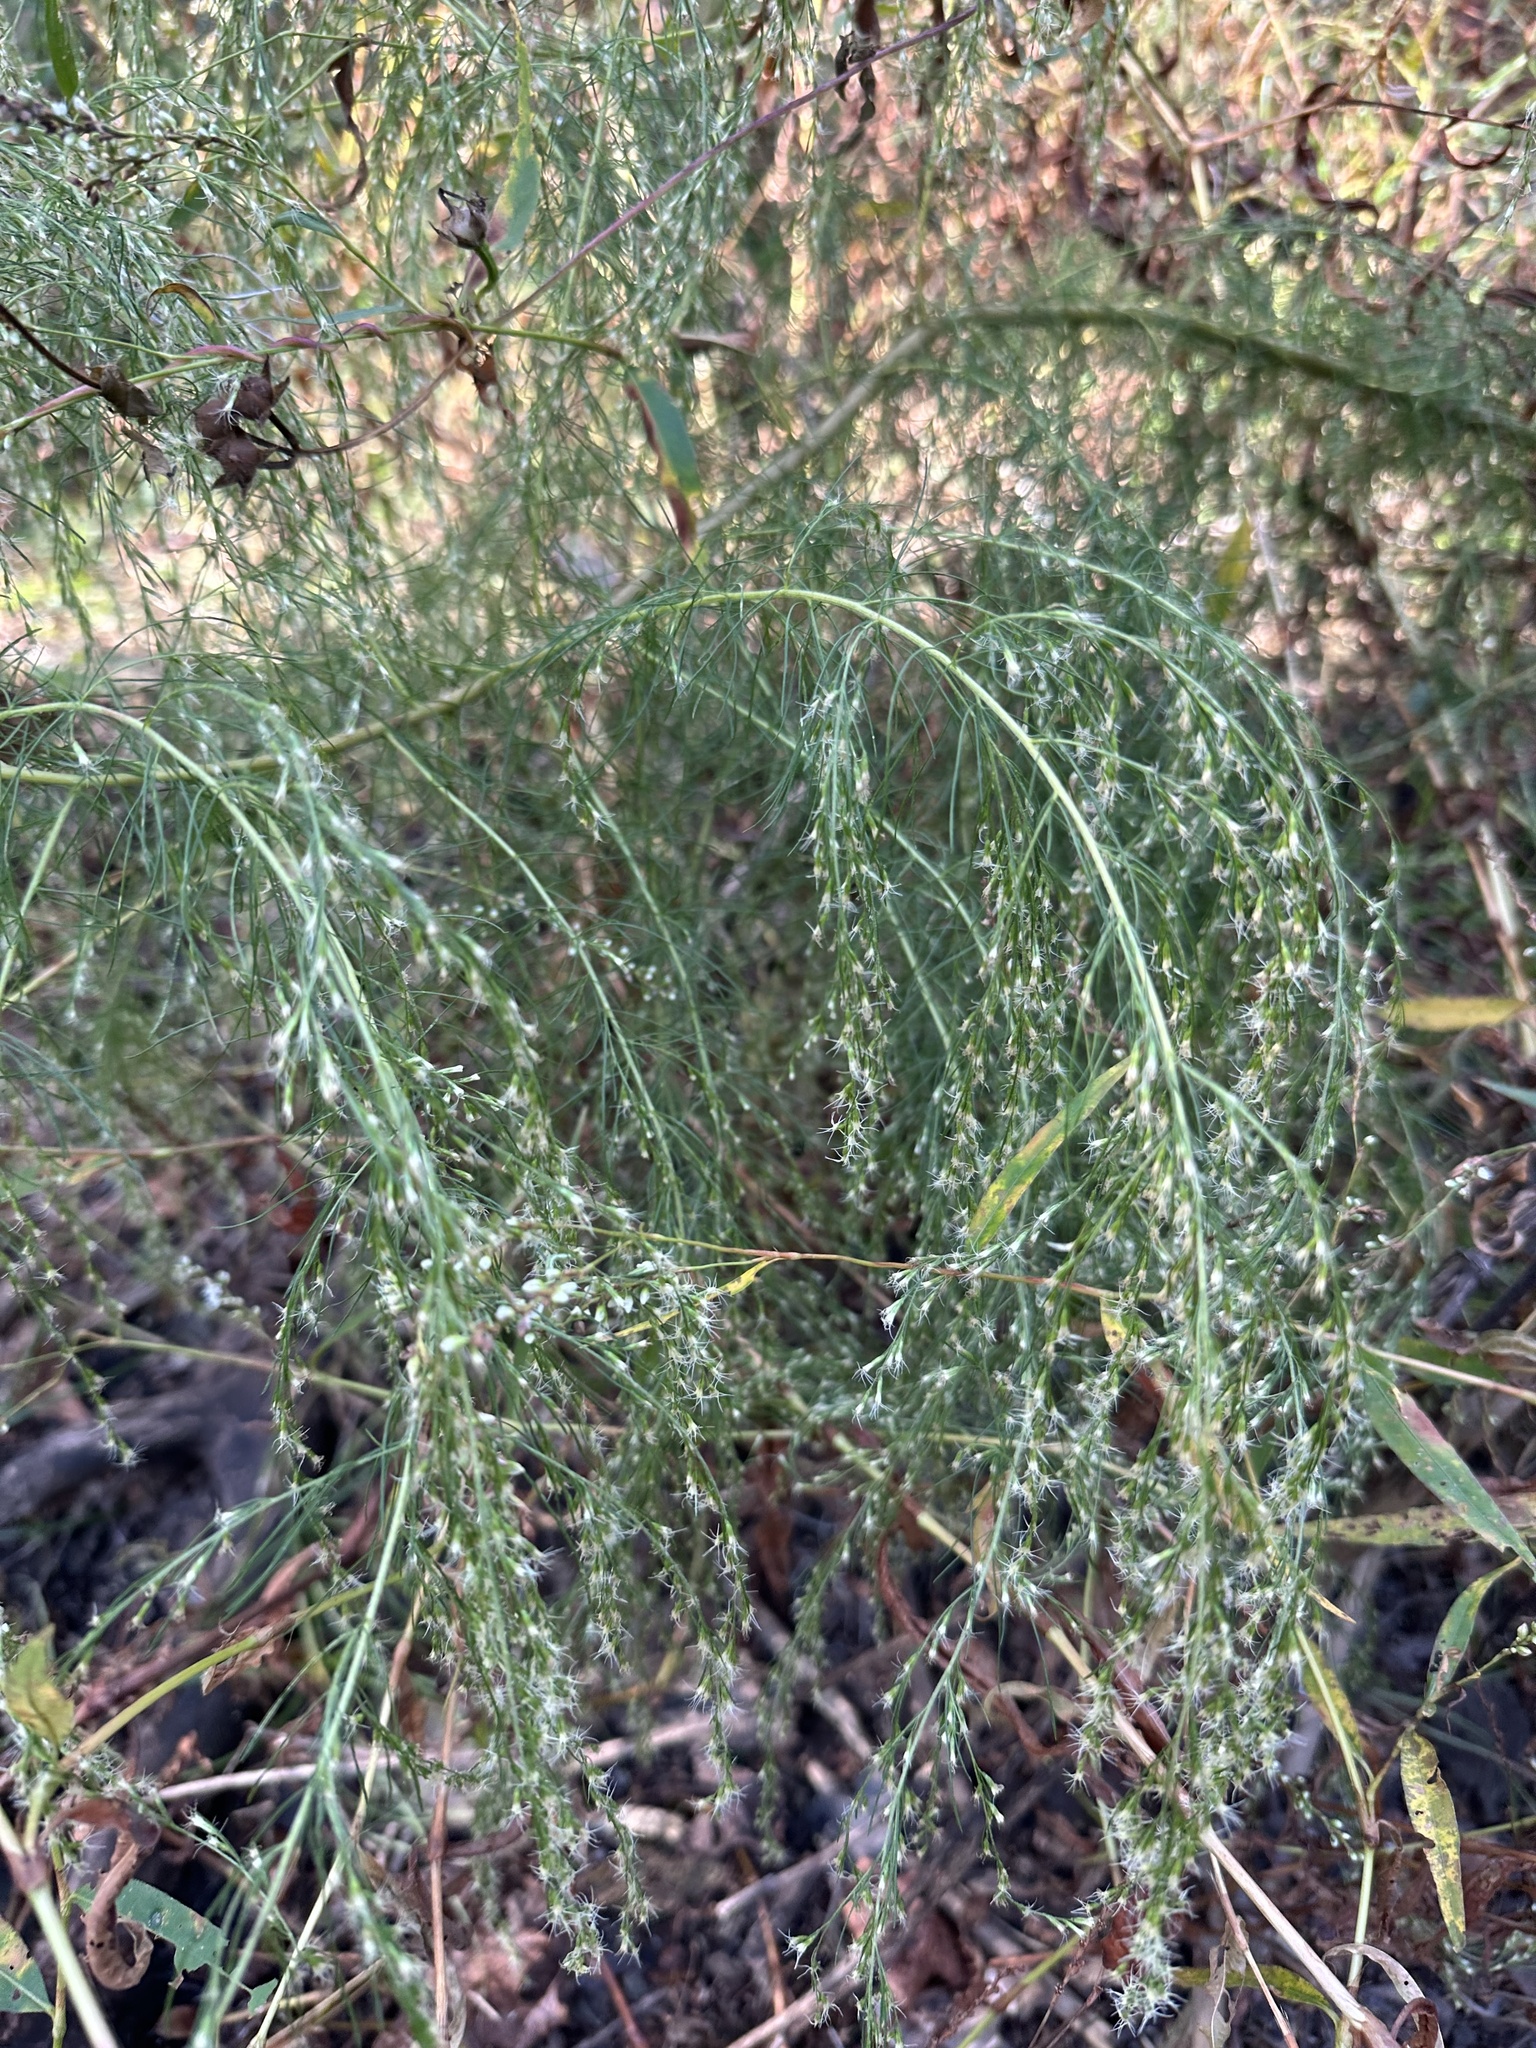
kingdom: Plantae
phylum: Tracheophyta
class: Magnoliopsida
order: Asterales
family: Asteraceae
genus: Eupatorium
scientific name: Eupatorium capillifolium
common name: Dog-fennel
